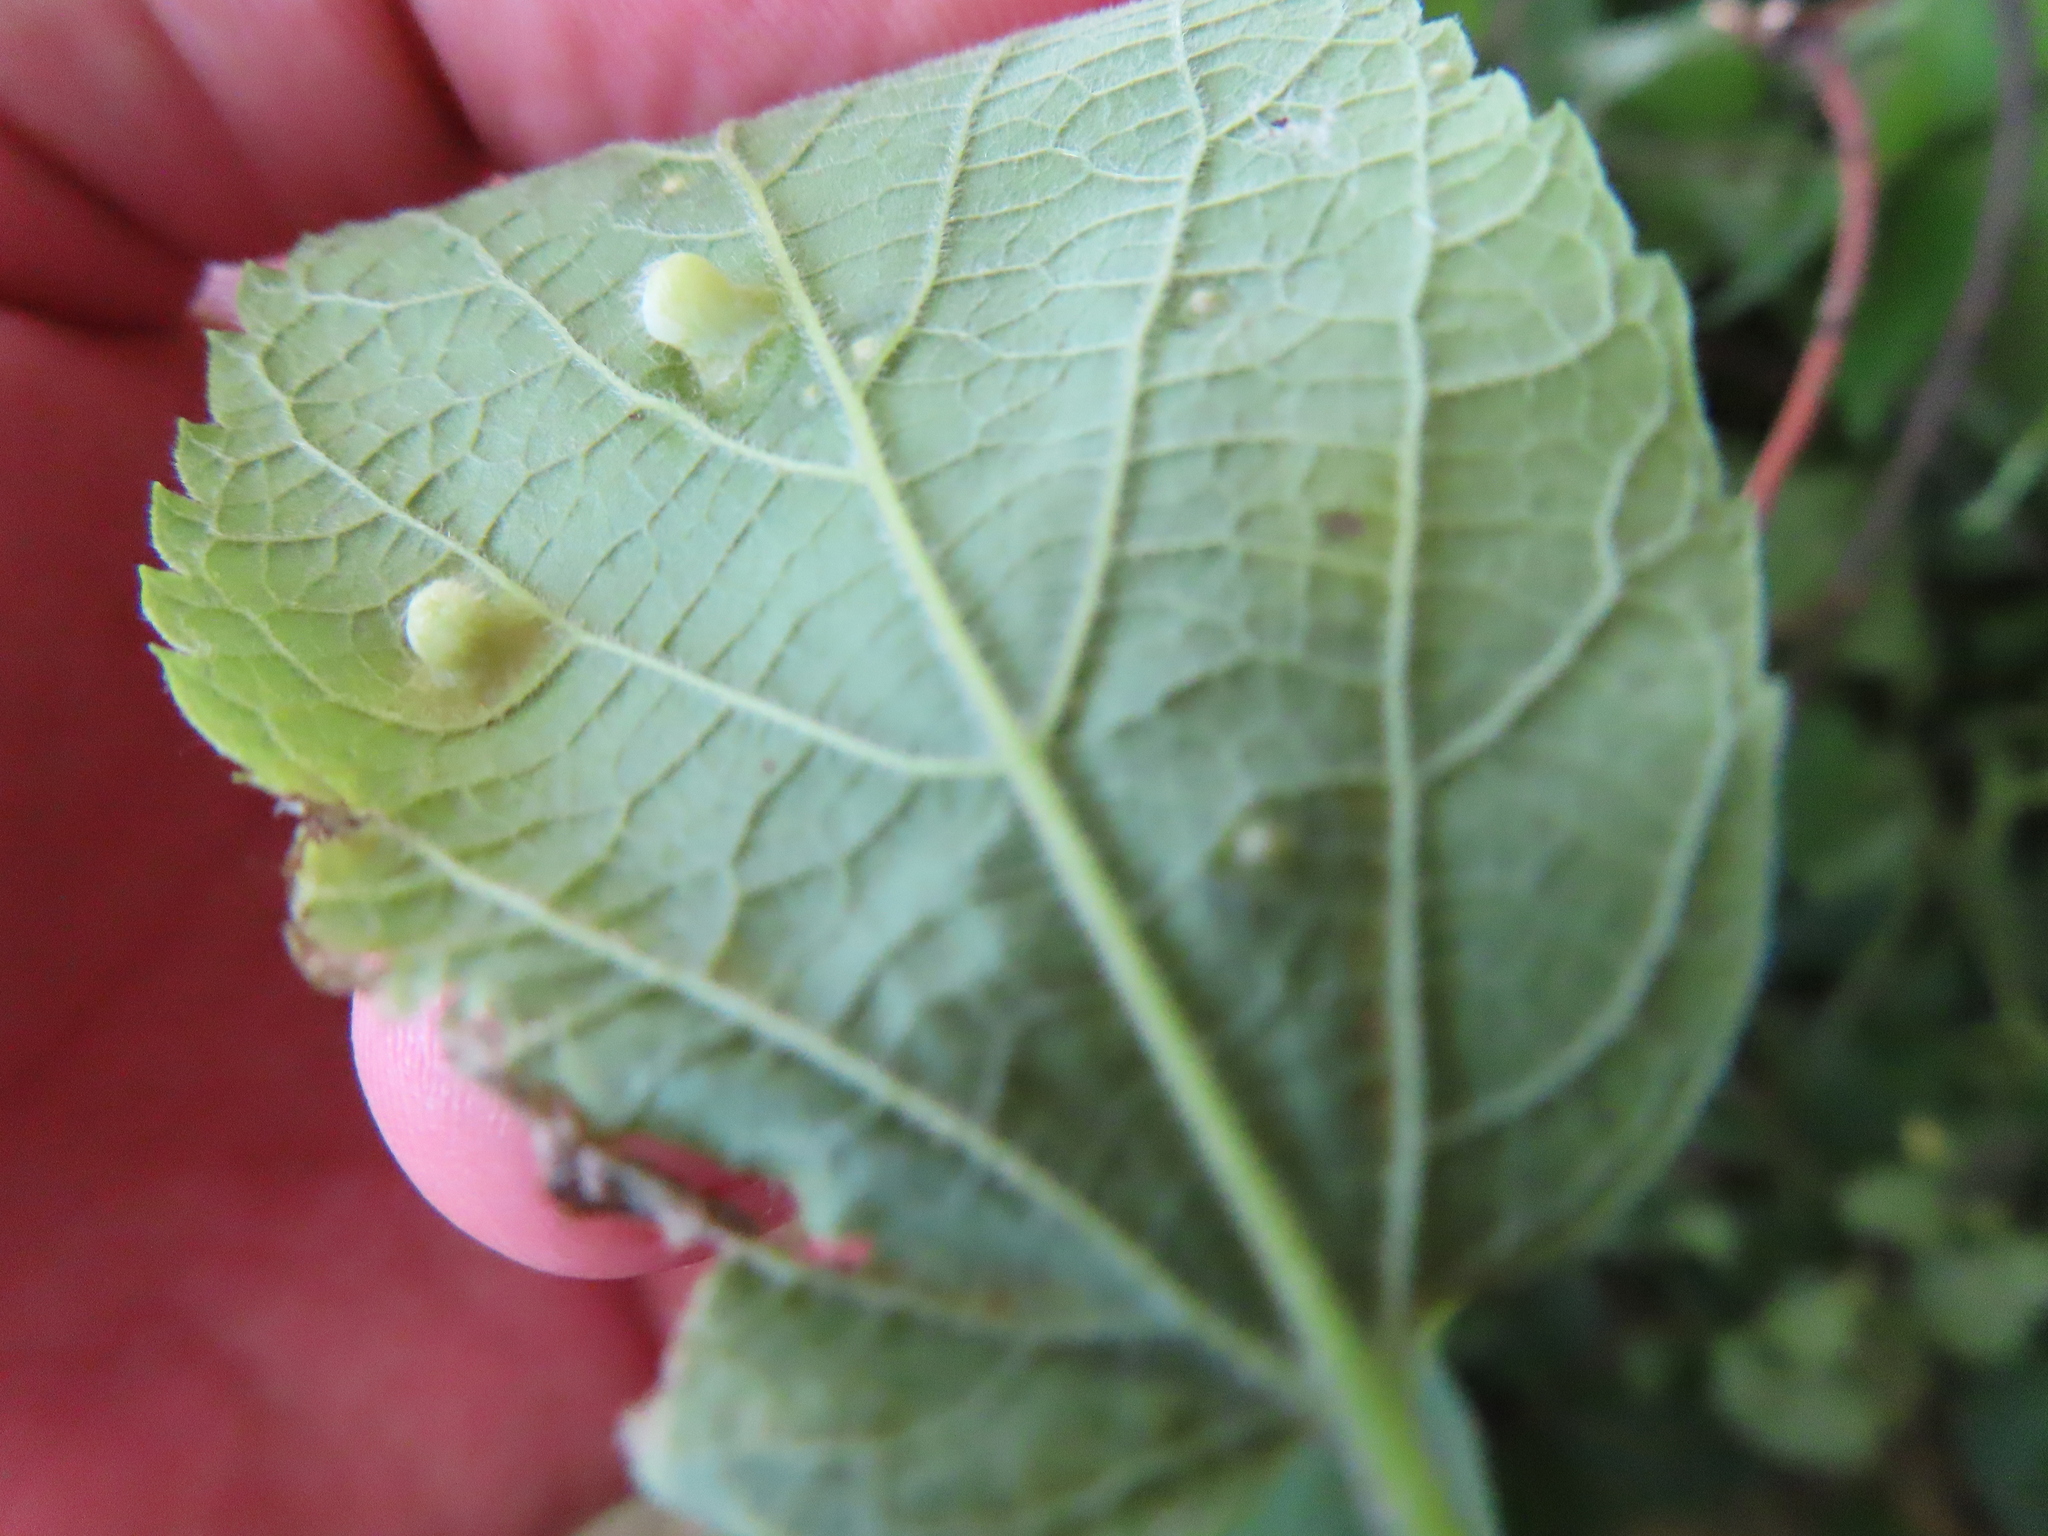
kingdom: Animalia
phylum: Arthropoda
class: Insecta
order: Hemiptera
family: Aphalaridae
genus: Pachypsylla
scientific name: Pachypsylla celtidismamma
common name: Hackberry nipplegall psyllid
